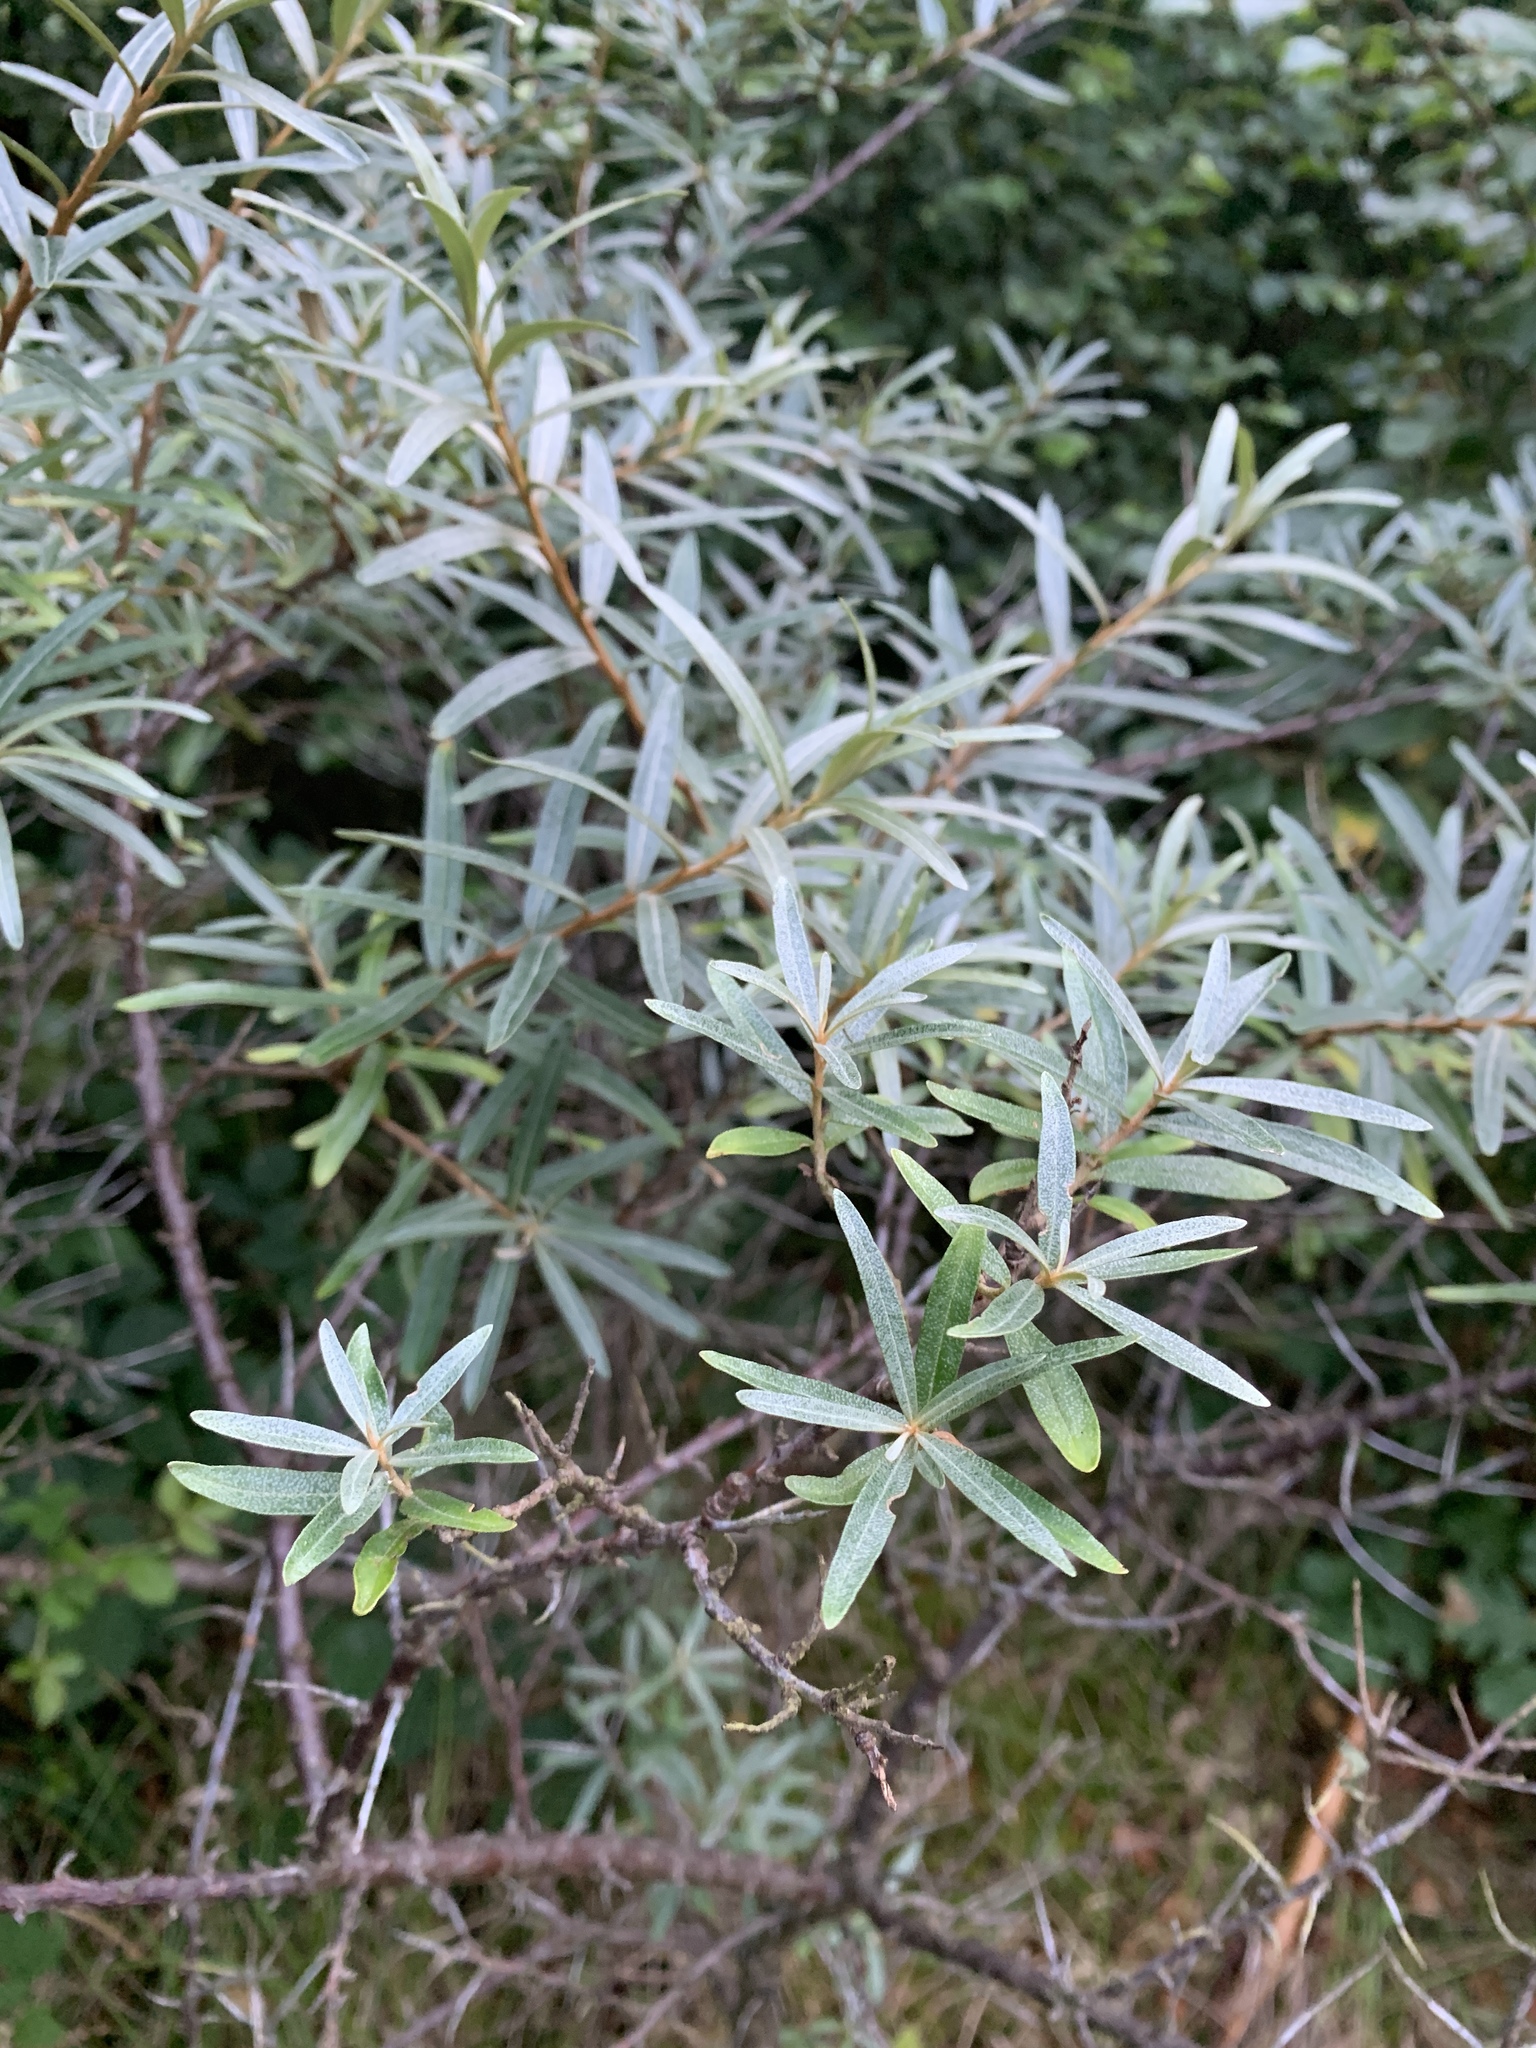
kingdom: Plantae
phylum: Tracheophyta
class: Magnoliopsida
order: Rosales
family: Elaeagnaceae
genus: Hippophae
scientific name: Hippophae rhamnoides
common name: Sea-buckthorn
